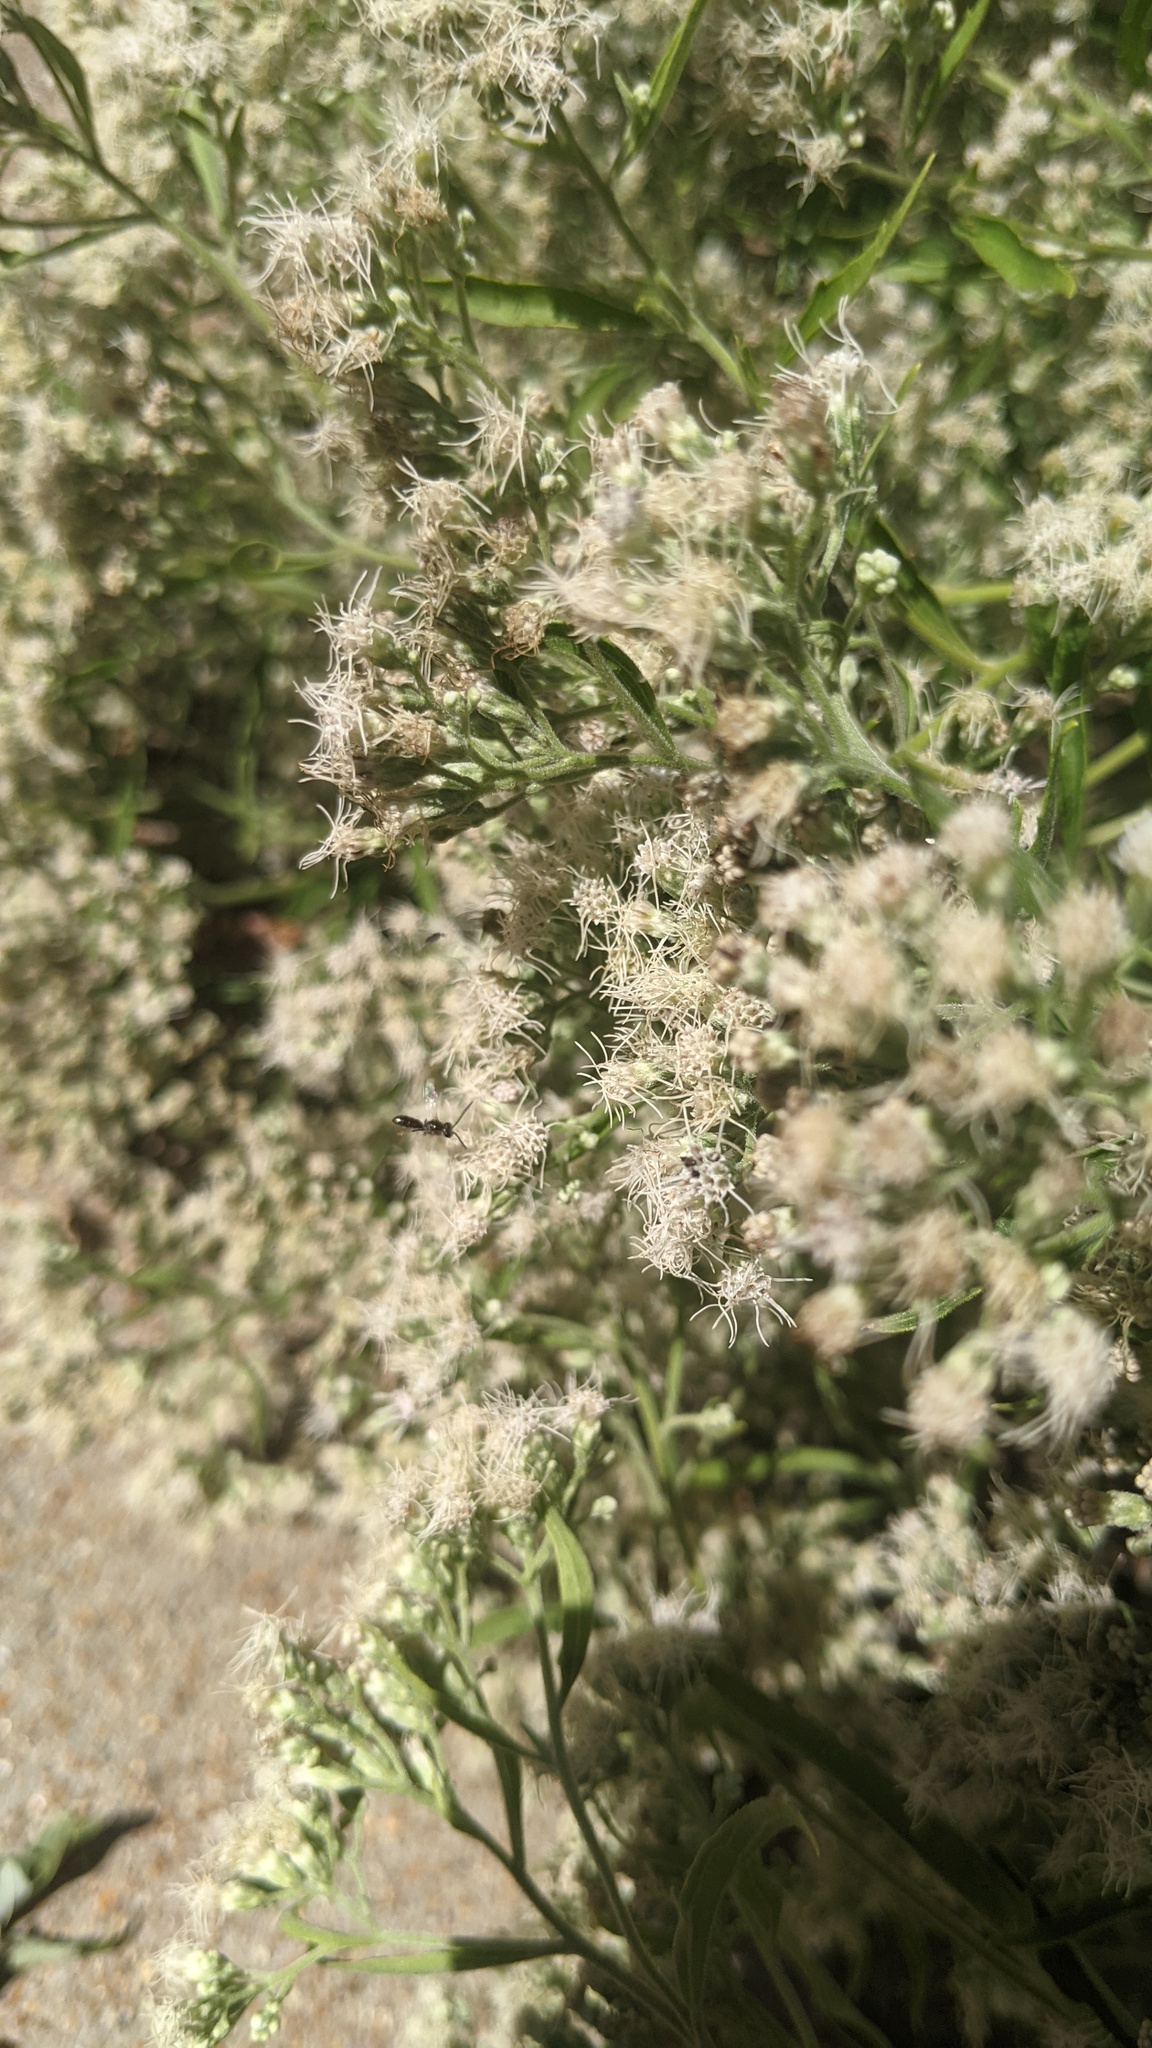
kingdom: Animalia
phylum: Arthropoda
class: Insecta
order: Hymenoptera
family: Halictidae
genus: Dialictus
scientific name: Dialictus
